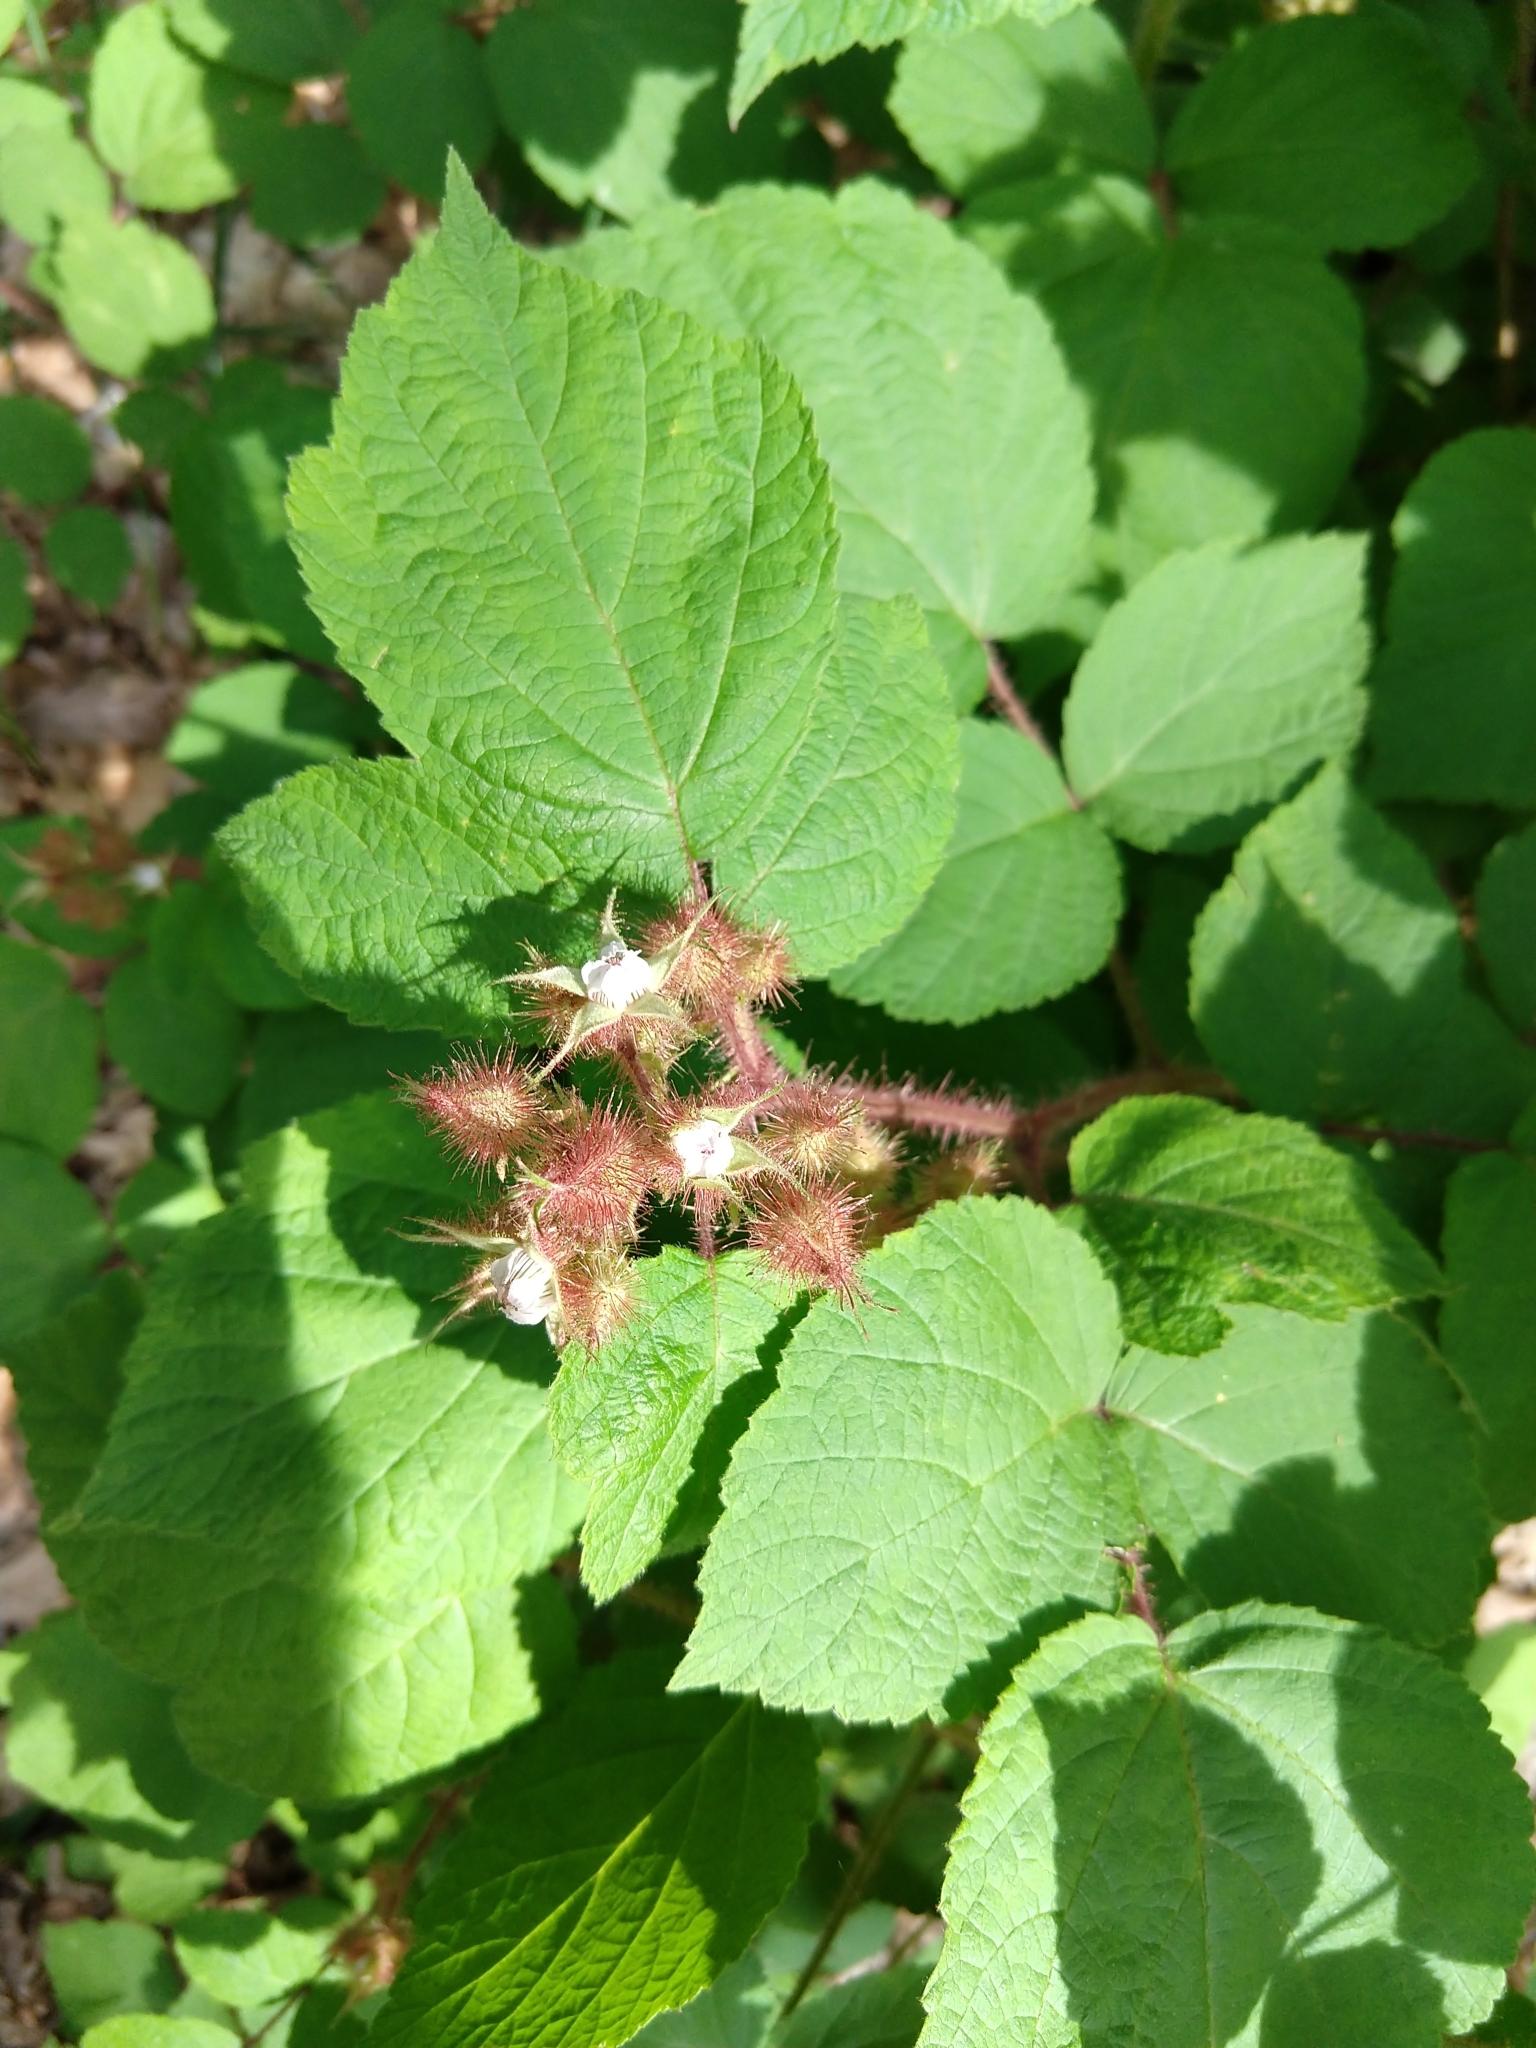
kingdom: Plantae
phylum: Tracheophyta
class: Magnoliopsida
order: Rosales
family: Rosaceae
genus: Rubus
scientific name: Rubus phoenicolasius
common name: Japanese wineberry
